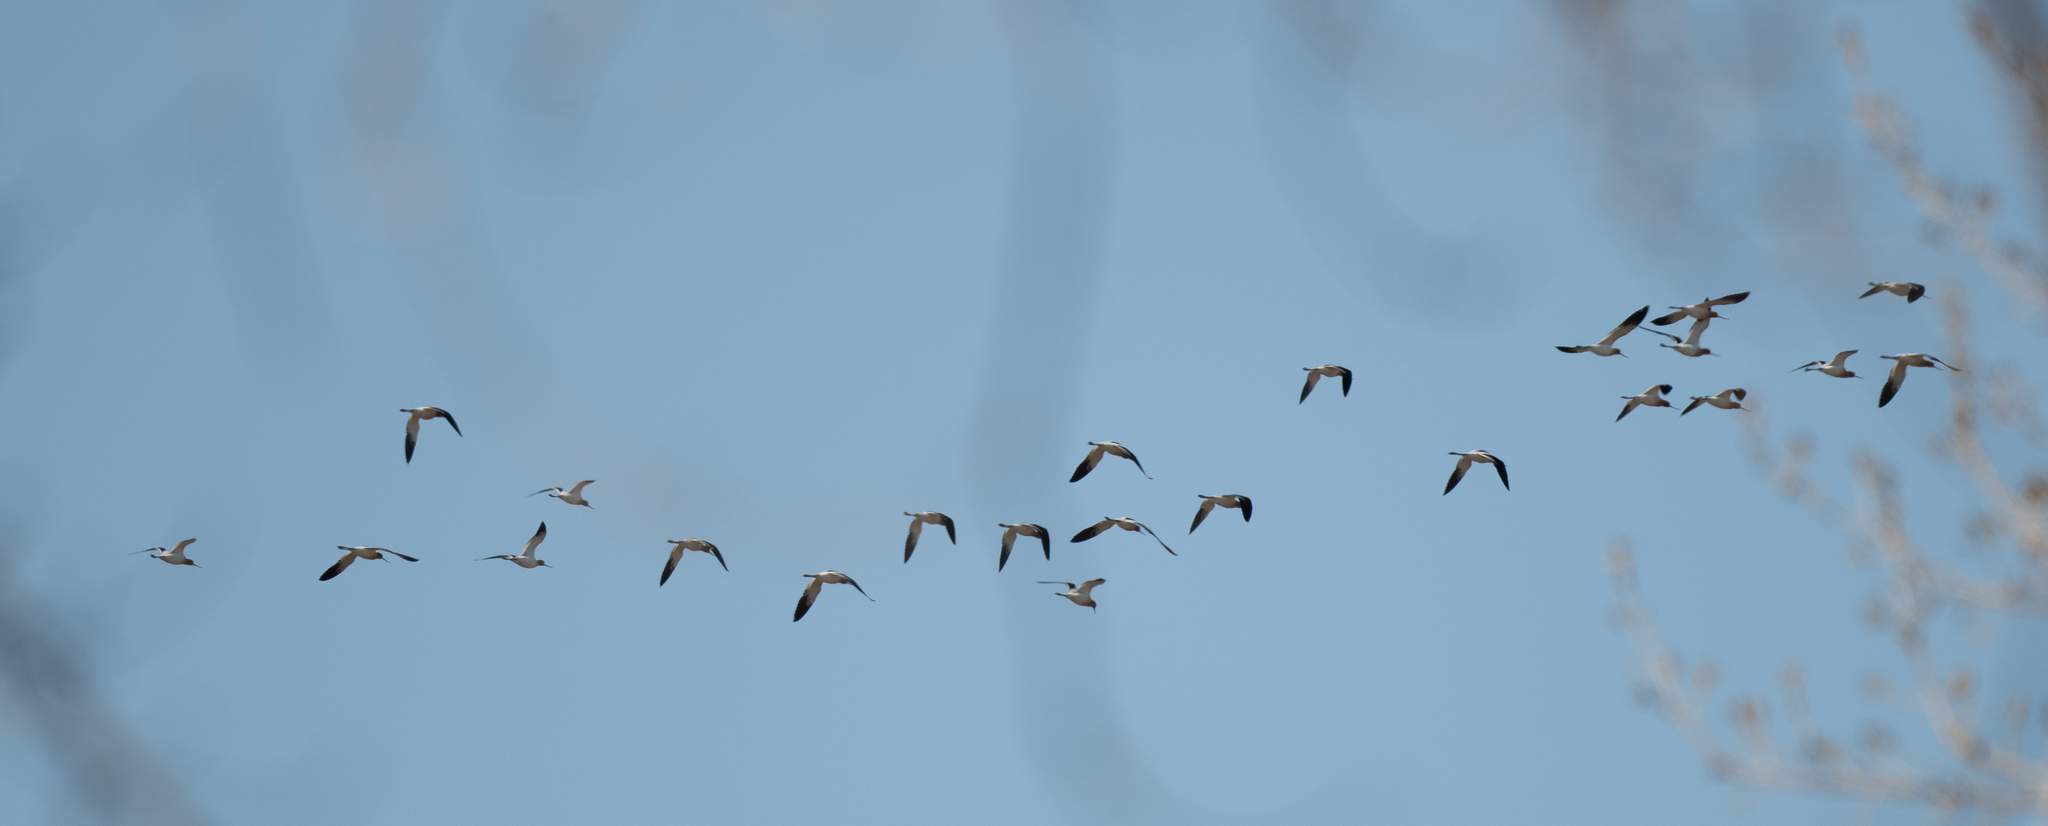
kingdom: Animalia
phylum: Chordata
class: Aves
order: Charadriiformes
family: Recurvirostridae
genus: Recurvirostra
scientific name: Recurvirostra americana
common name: American avocet
